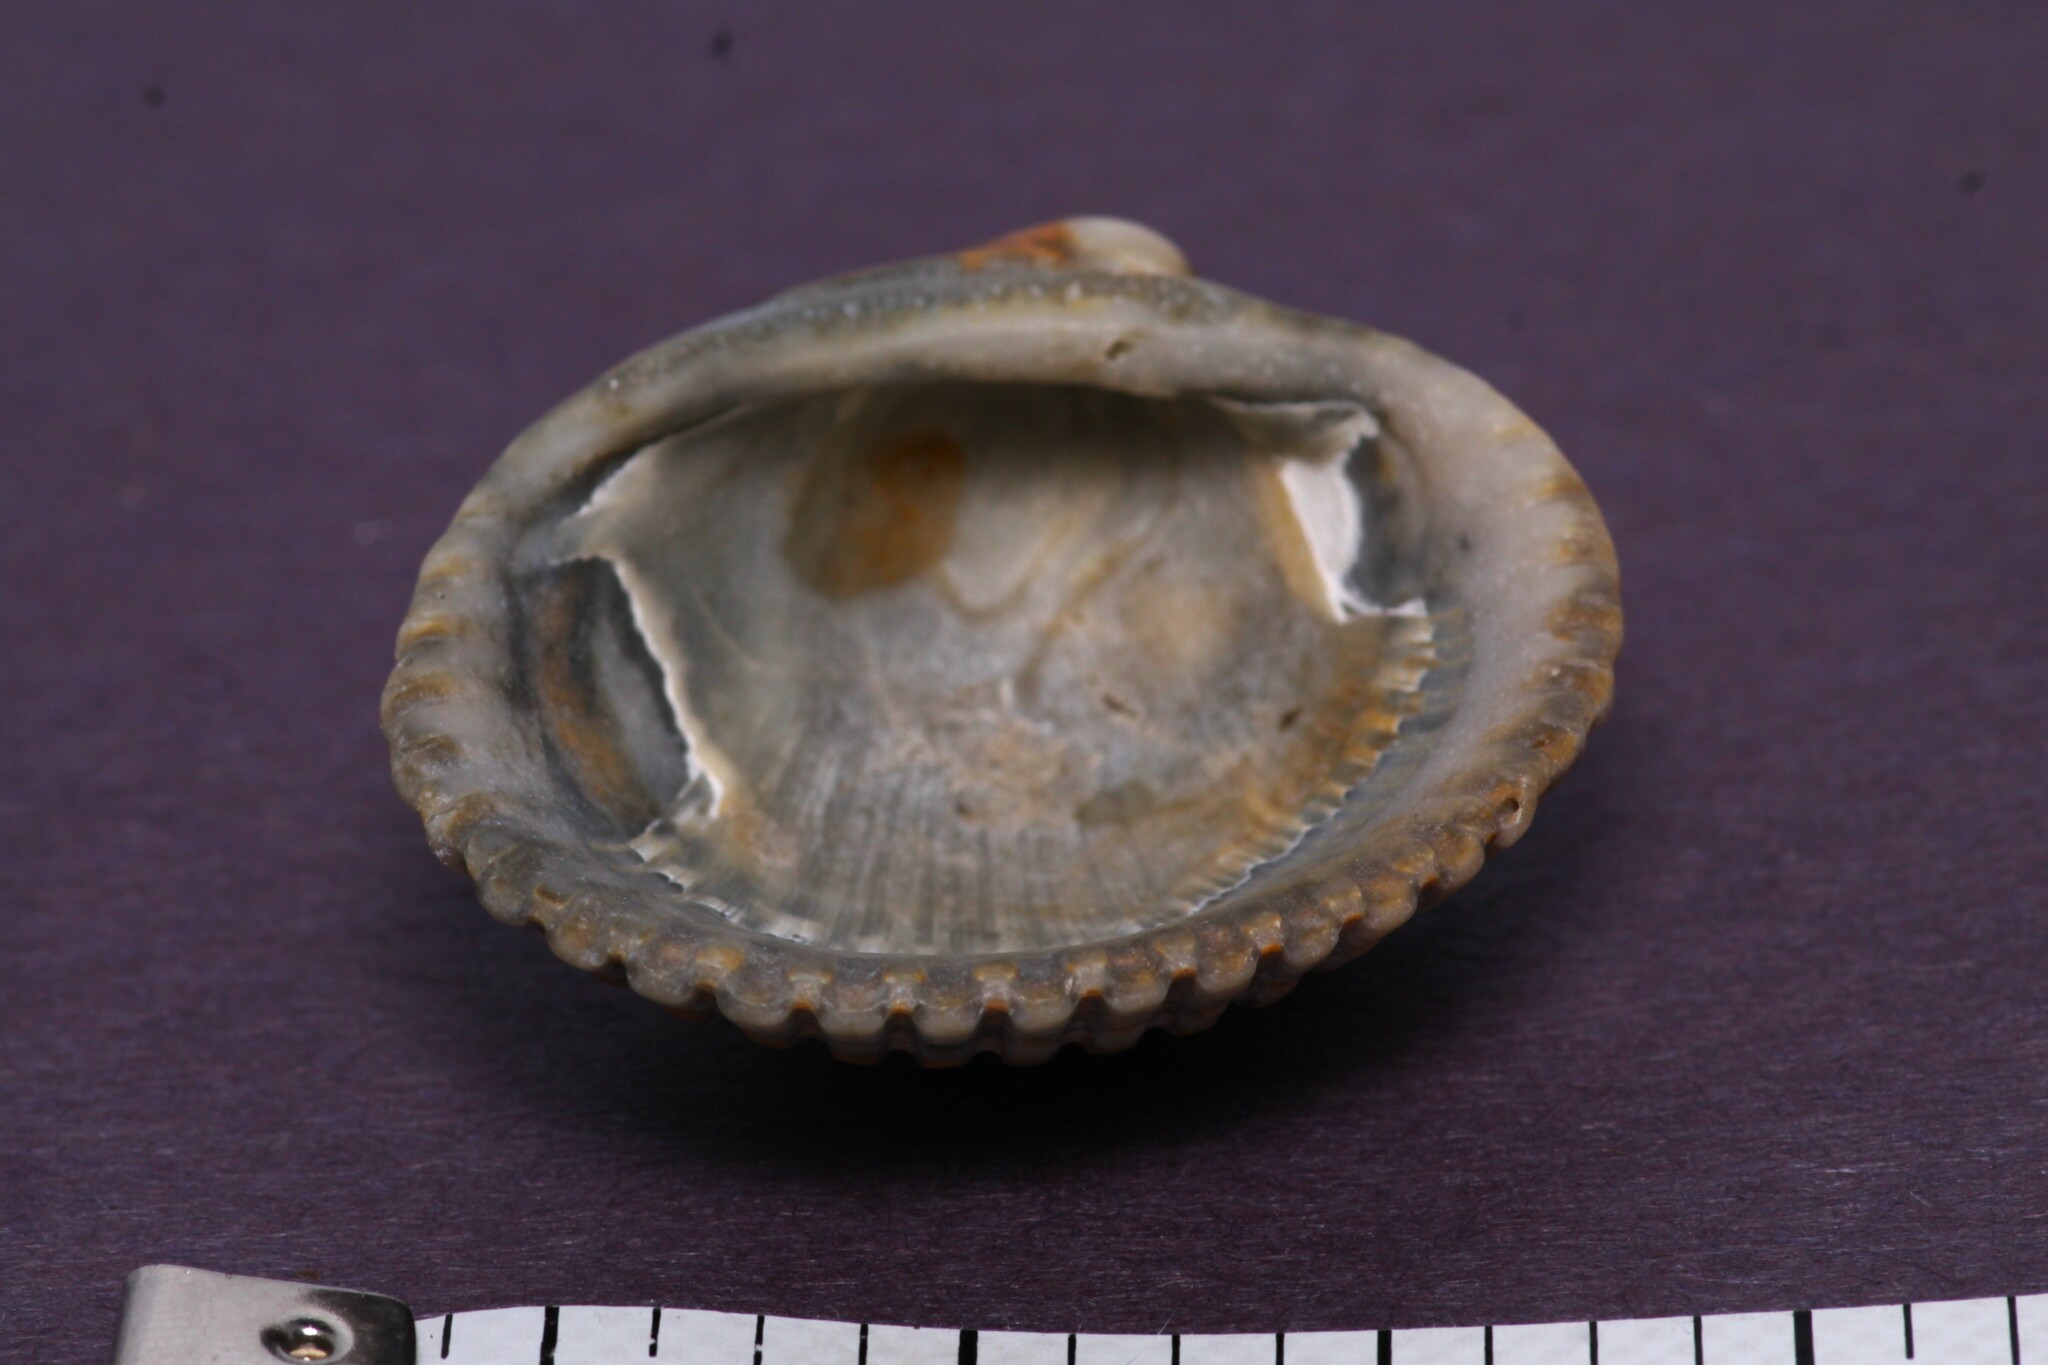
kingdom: Animalia
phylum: Mollusca
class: Bivalvia
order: Arcida
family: Arcidae
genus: Lunarca
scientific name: Lunarca ovalis
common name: Blood ark
